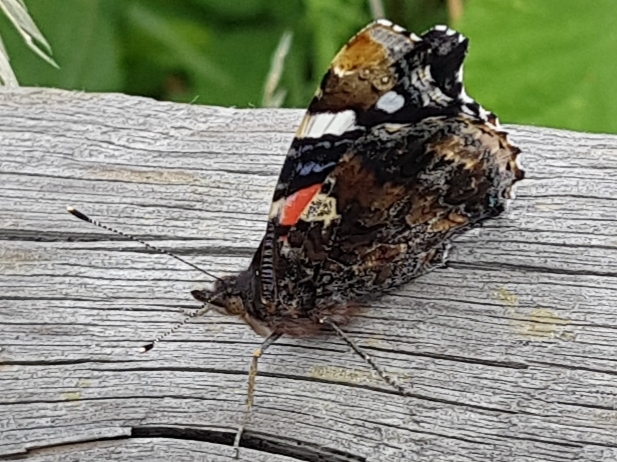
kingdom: Animalia
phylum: Arthropoda
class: Insecta
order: Lepidoptera
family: Nymphalidae
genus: Vanessa
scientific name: Vanessa atalanta
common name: Red admiral
